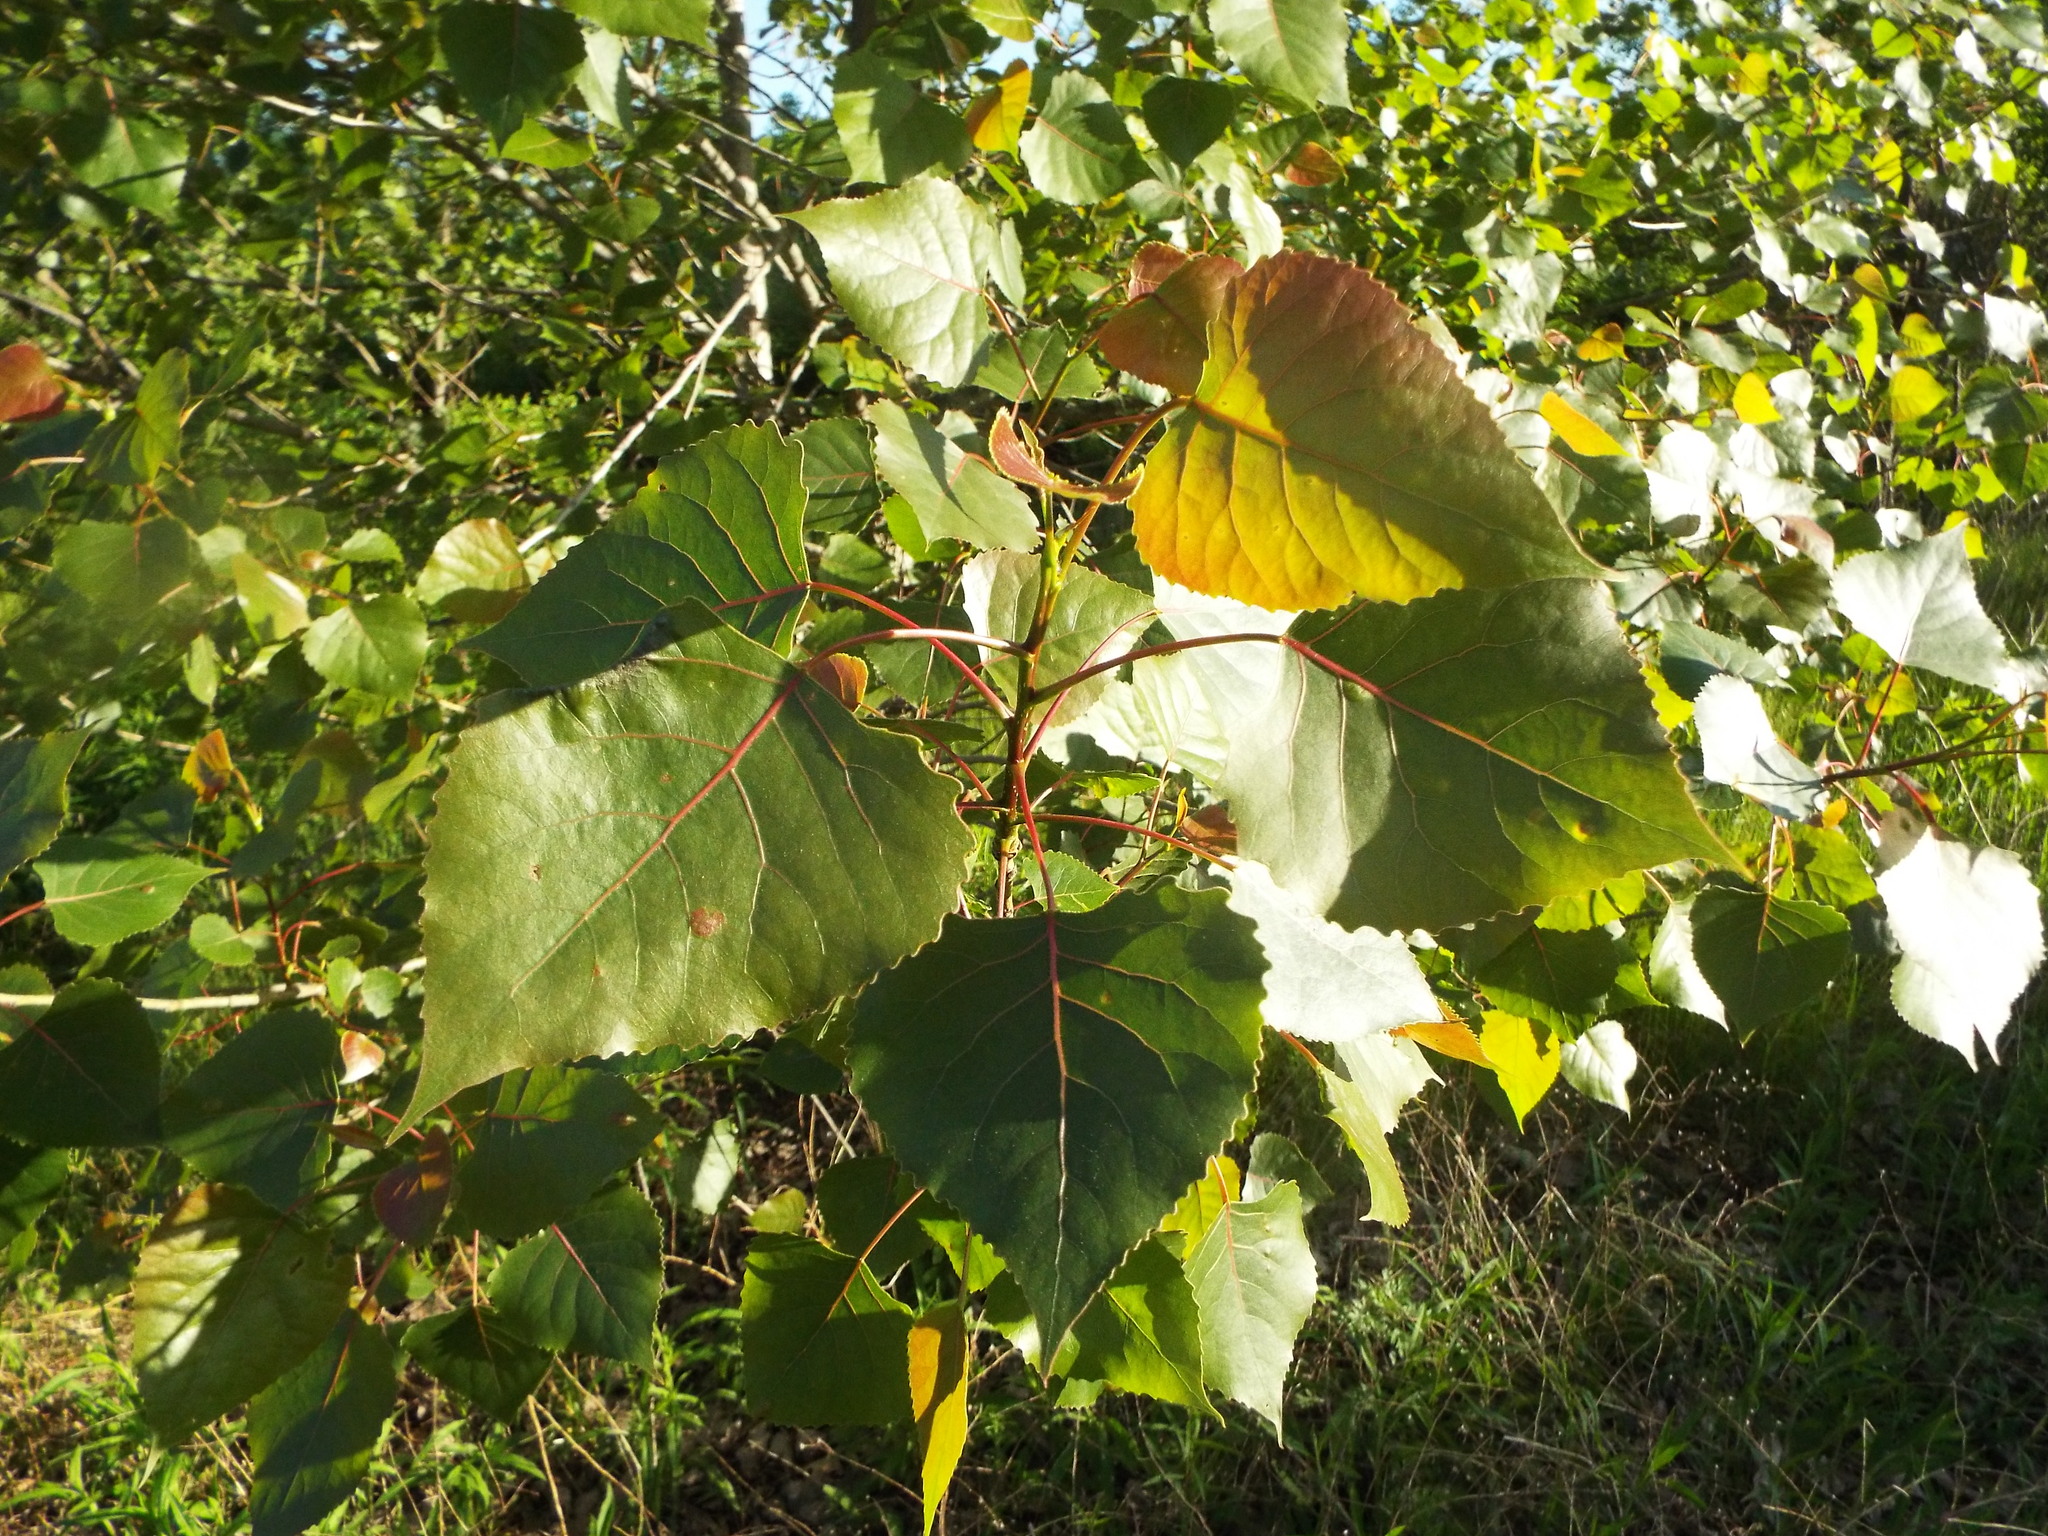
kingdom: Plantae
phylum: Tracheophyta
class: Magnoliopsida
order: Malpighiales
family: Salicaceae
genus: Populus
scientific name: Populus deltoides
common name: Eastern cottonwood
